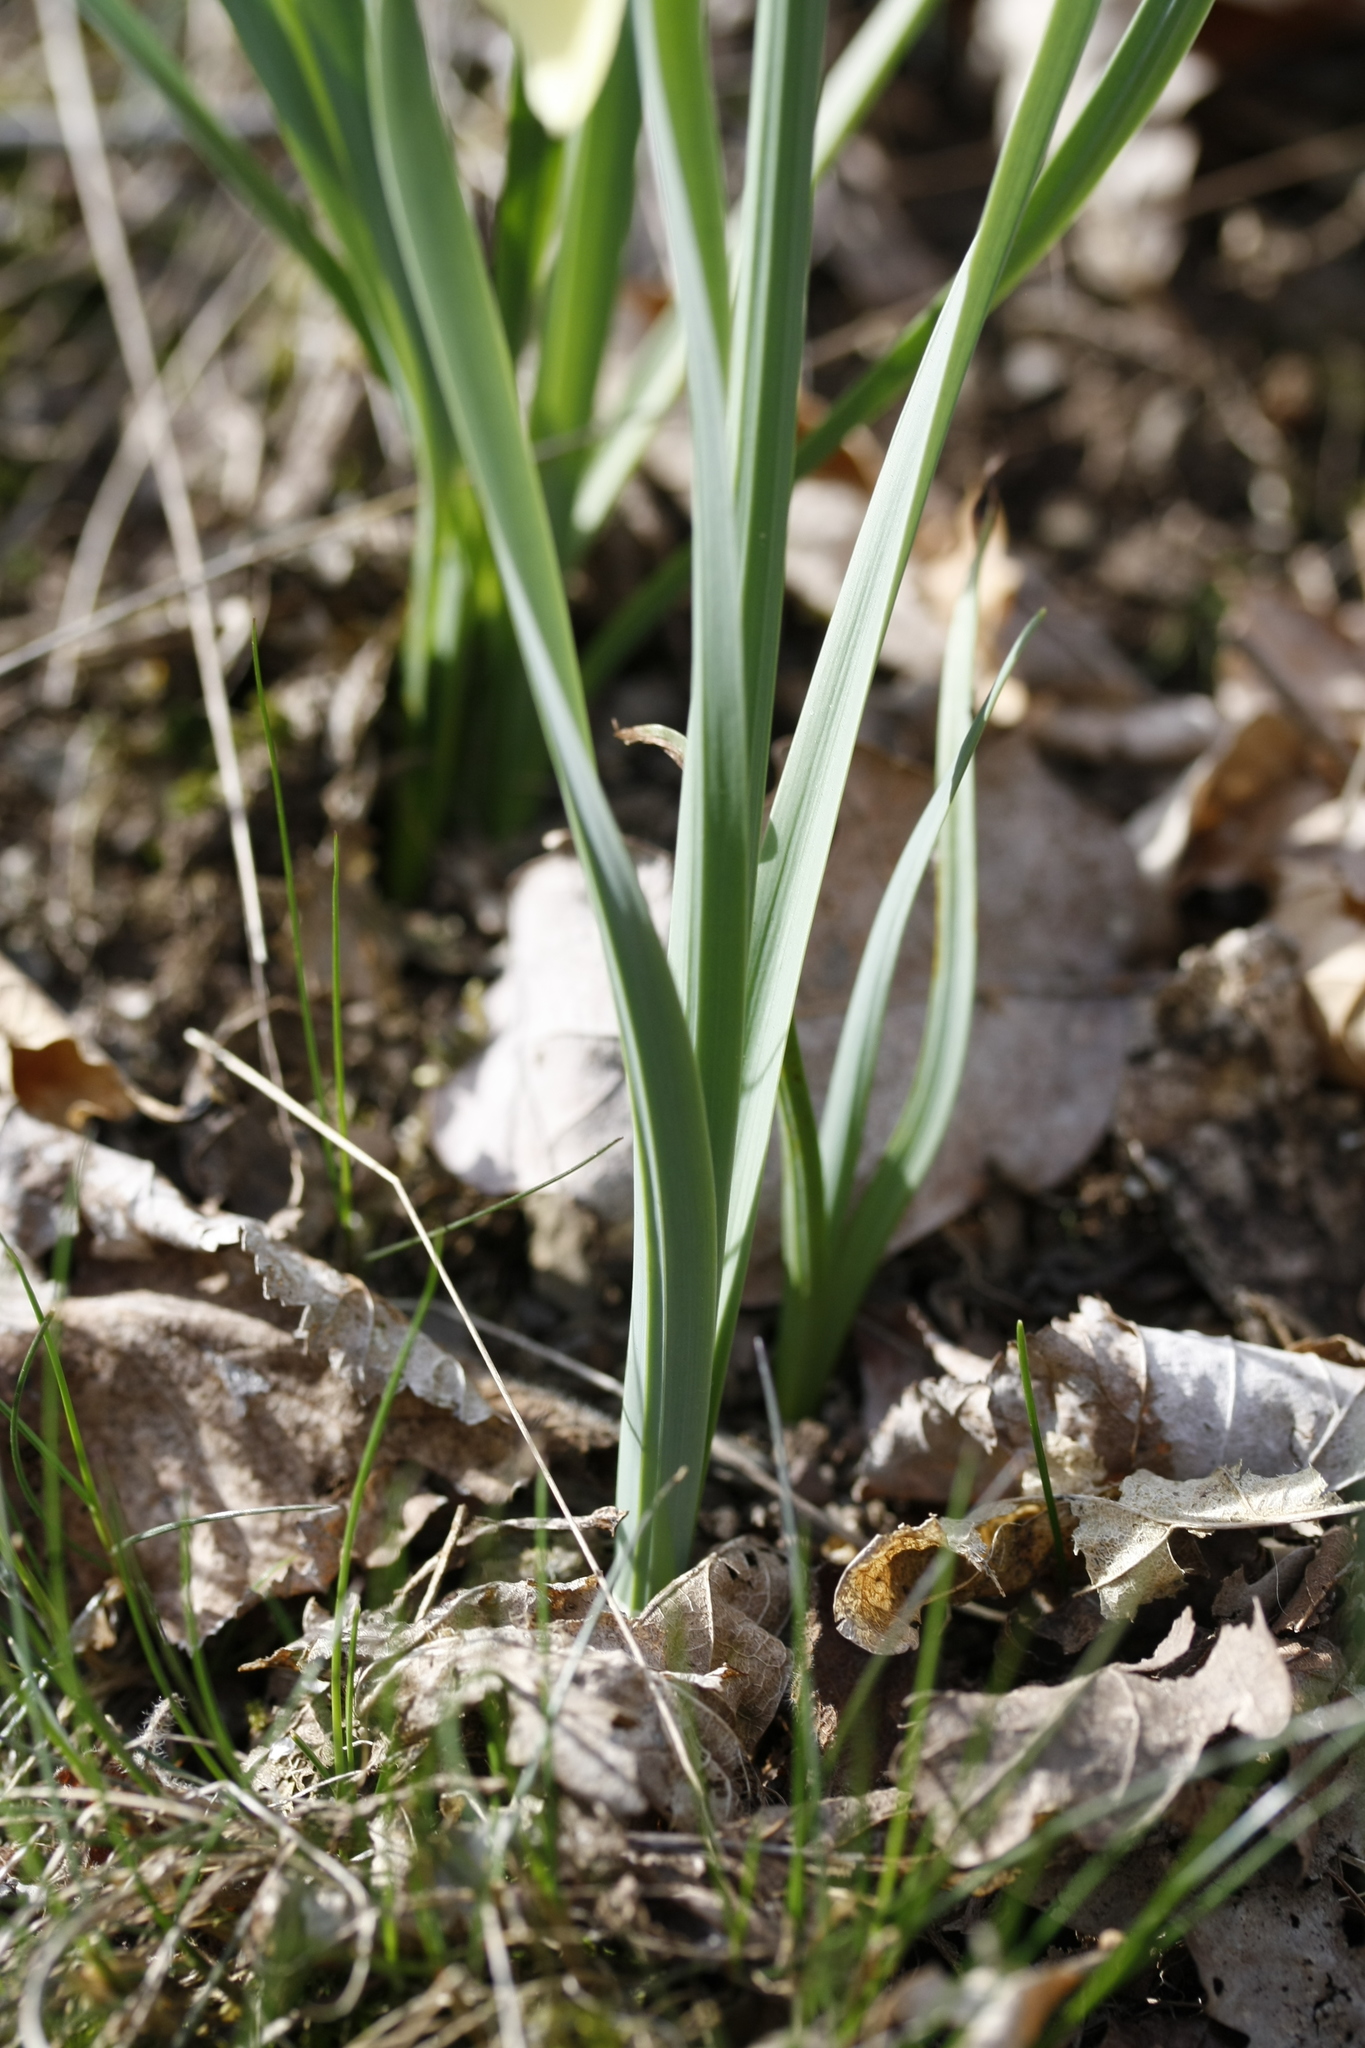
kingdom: Plantae
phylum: Tracheophyta
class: Liliopsida
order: Asparagales
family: Amaryllidaceae
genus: Narcissus
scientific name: Narcissus pseudonarcissus
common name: Daffodil
